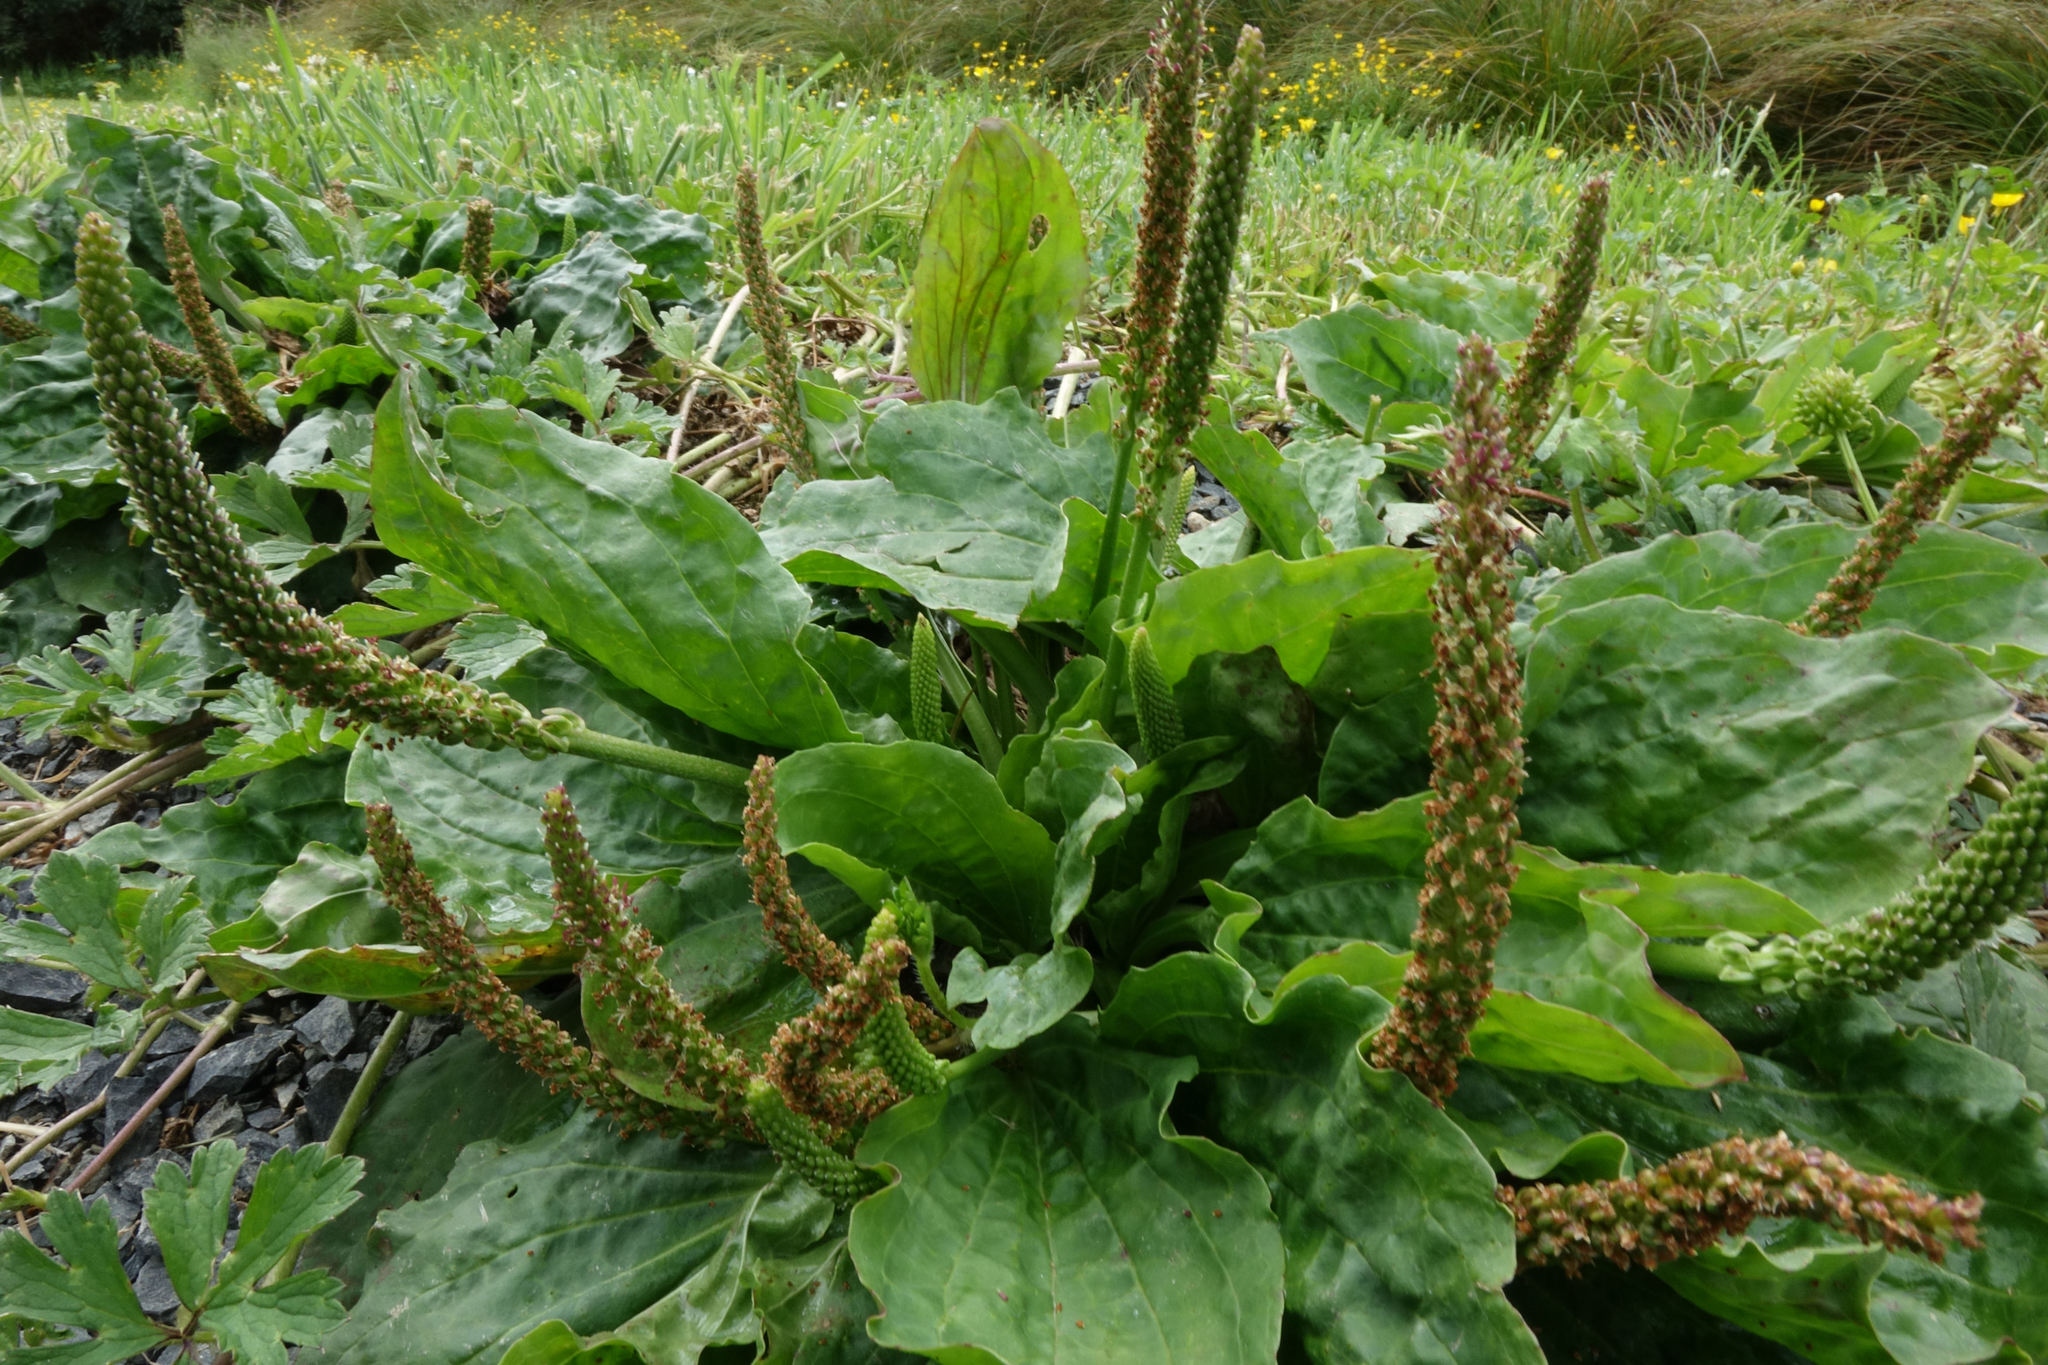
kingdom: Plantae
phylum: Tracheophyta
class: Magnoliopsida
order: Lamiales
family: Plantaginaceae
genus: Plantago
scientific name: Plantago major
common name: Common plantain
